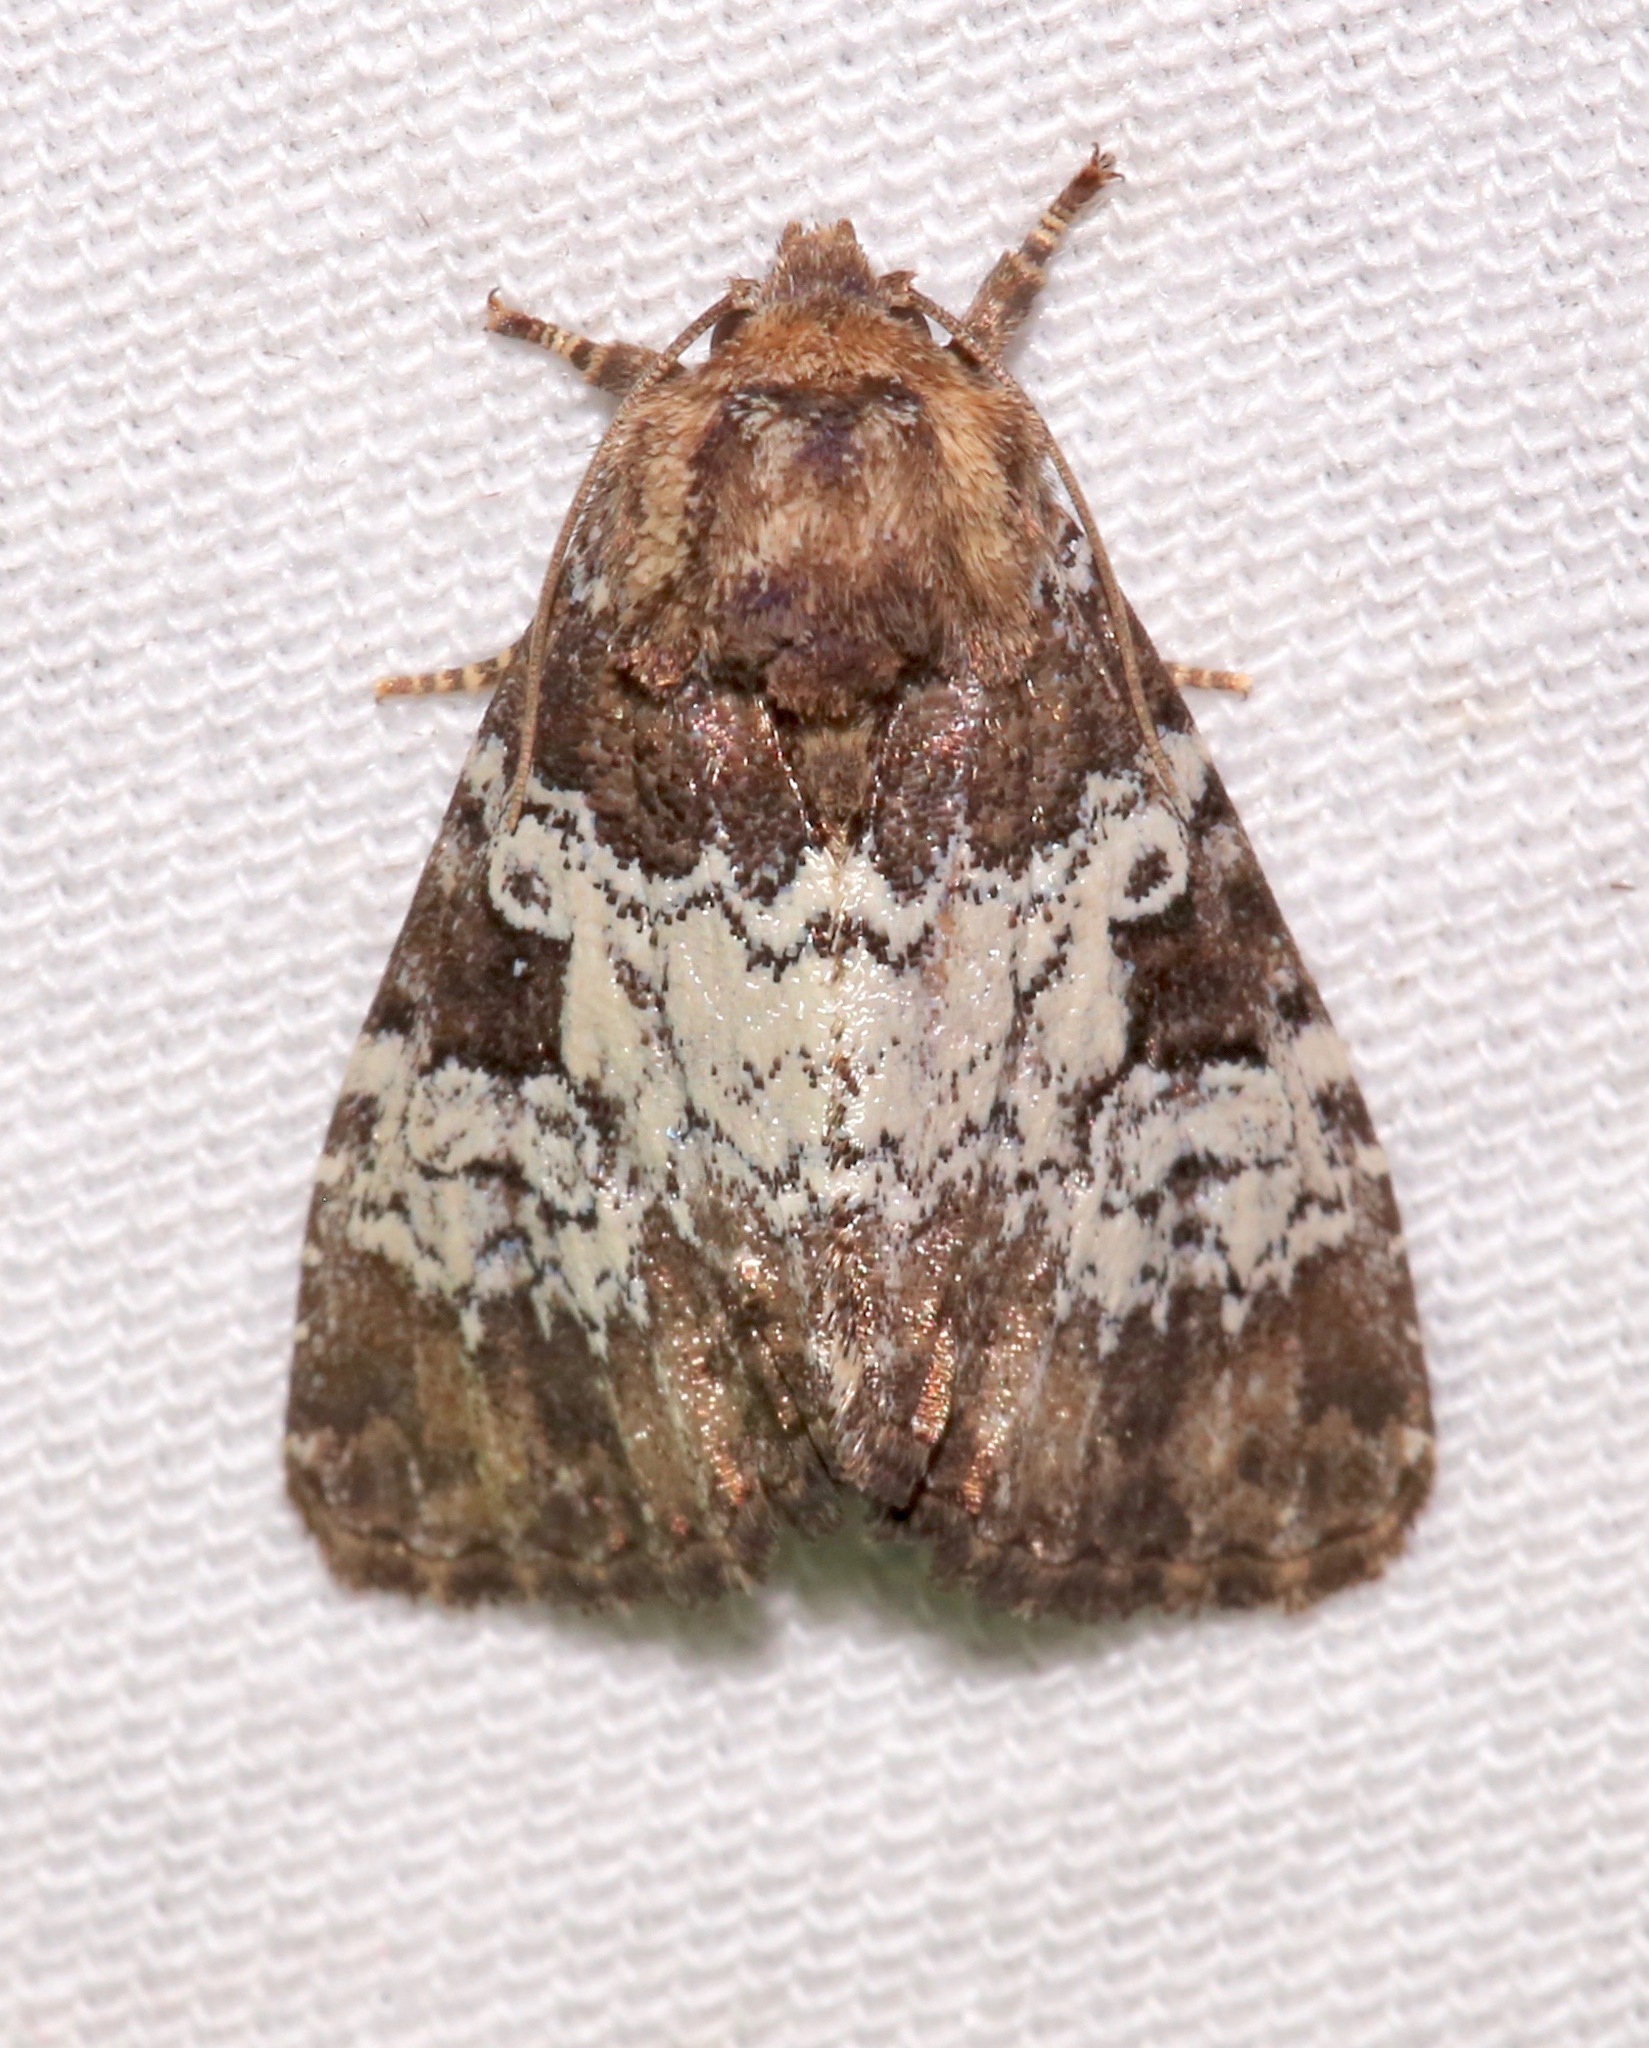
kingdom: Animalia
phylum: Arthropoda
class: Insecta
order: Lepidoptera
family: Noctuidae
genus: Euamiana
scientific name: Euamiana contrasta
